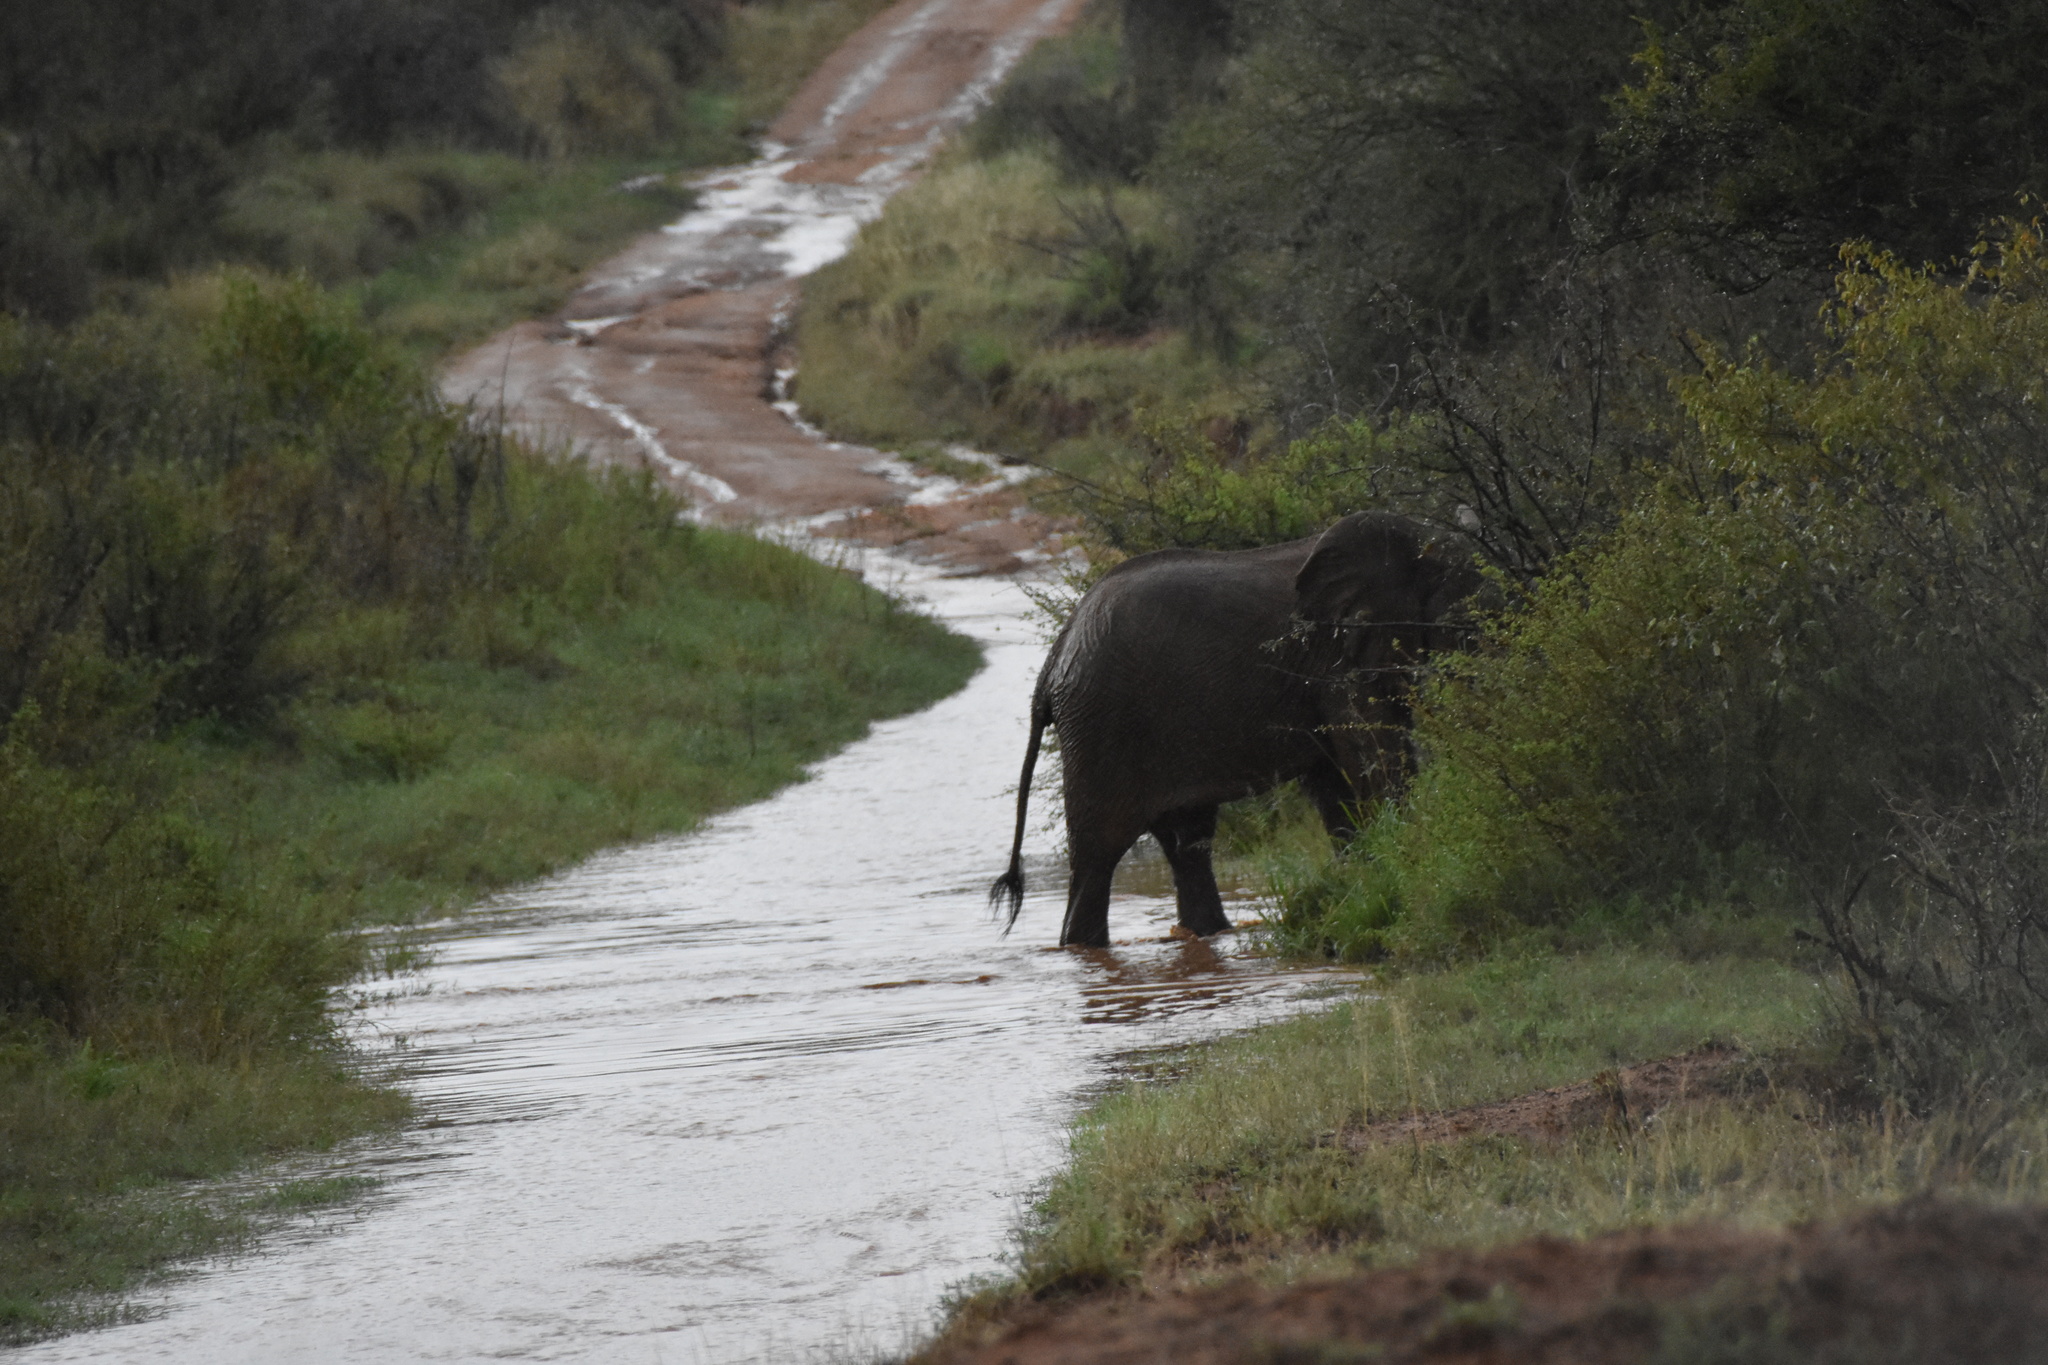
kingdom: Animalia
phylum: Chordata
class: Mammalia
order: Proboscidea
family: Elephantidae
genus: Loxodonta
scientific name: Loxodonta africana
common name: African elephant
